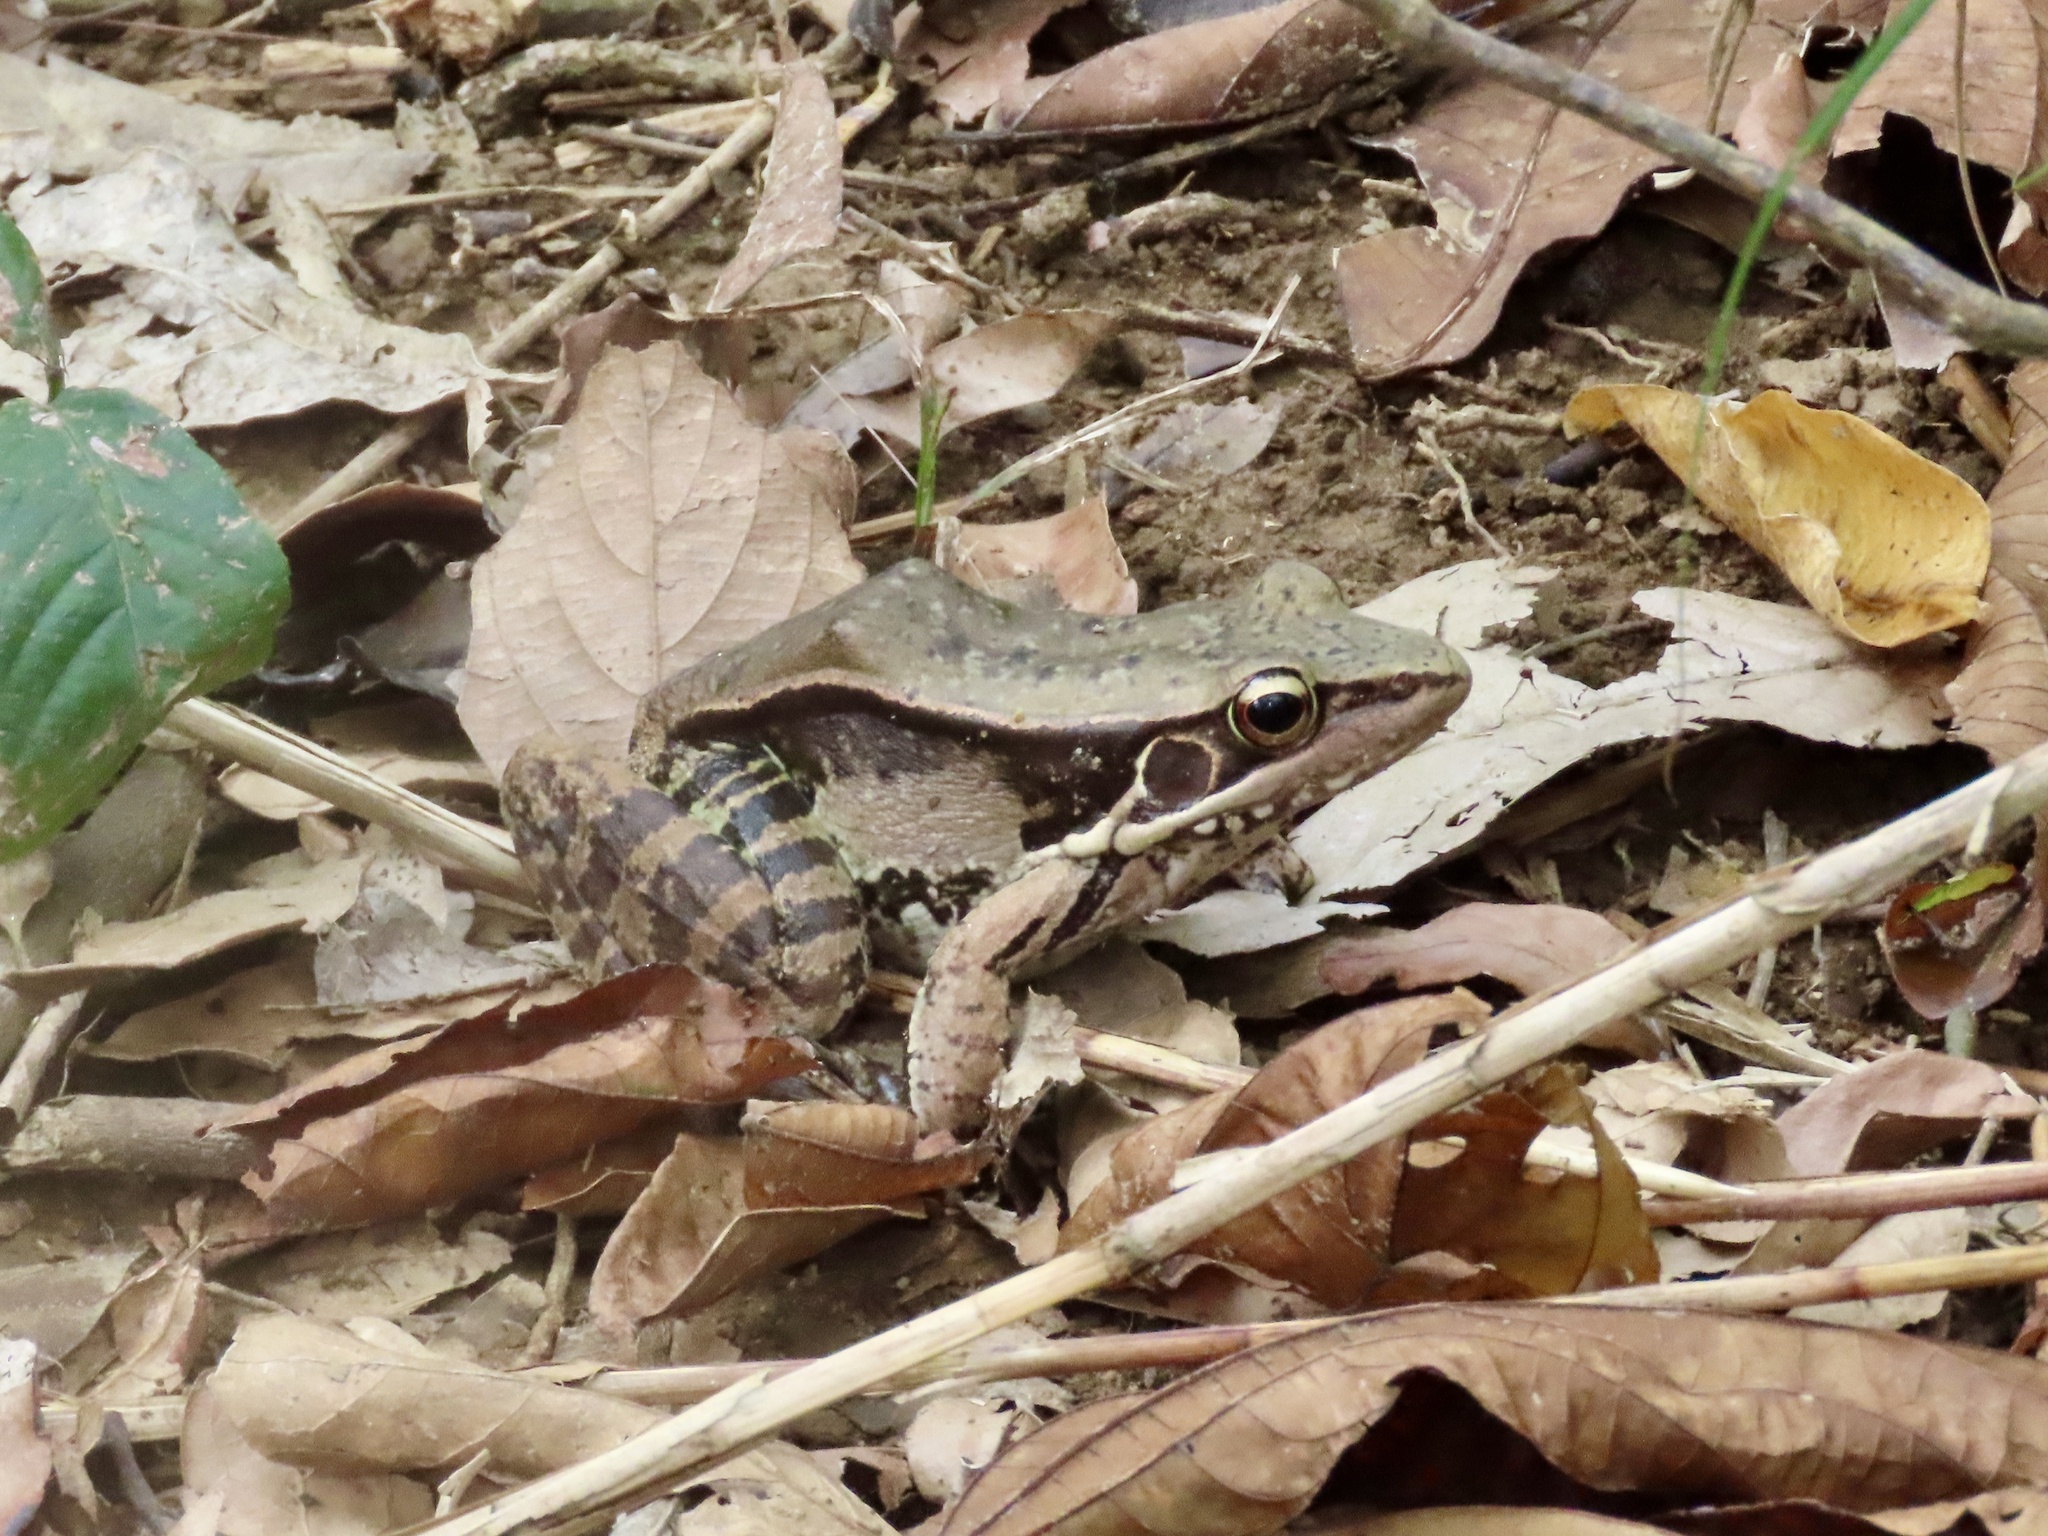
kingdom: Animalia
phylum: Chordata
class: Amphibia
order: Anura
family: Ranidae
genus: Sylvirana
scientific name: Sylvirana guentheri
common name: Guenther's amoy frog
